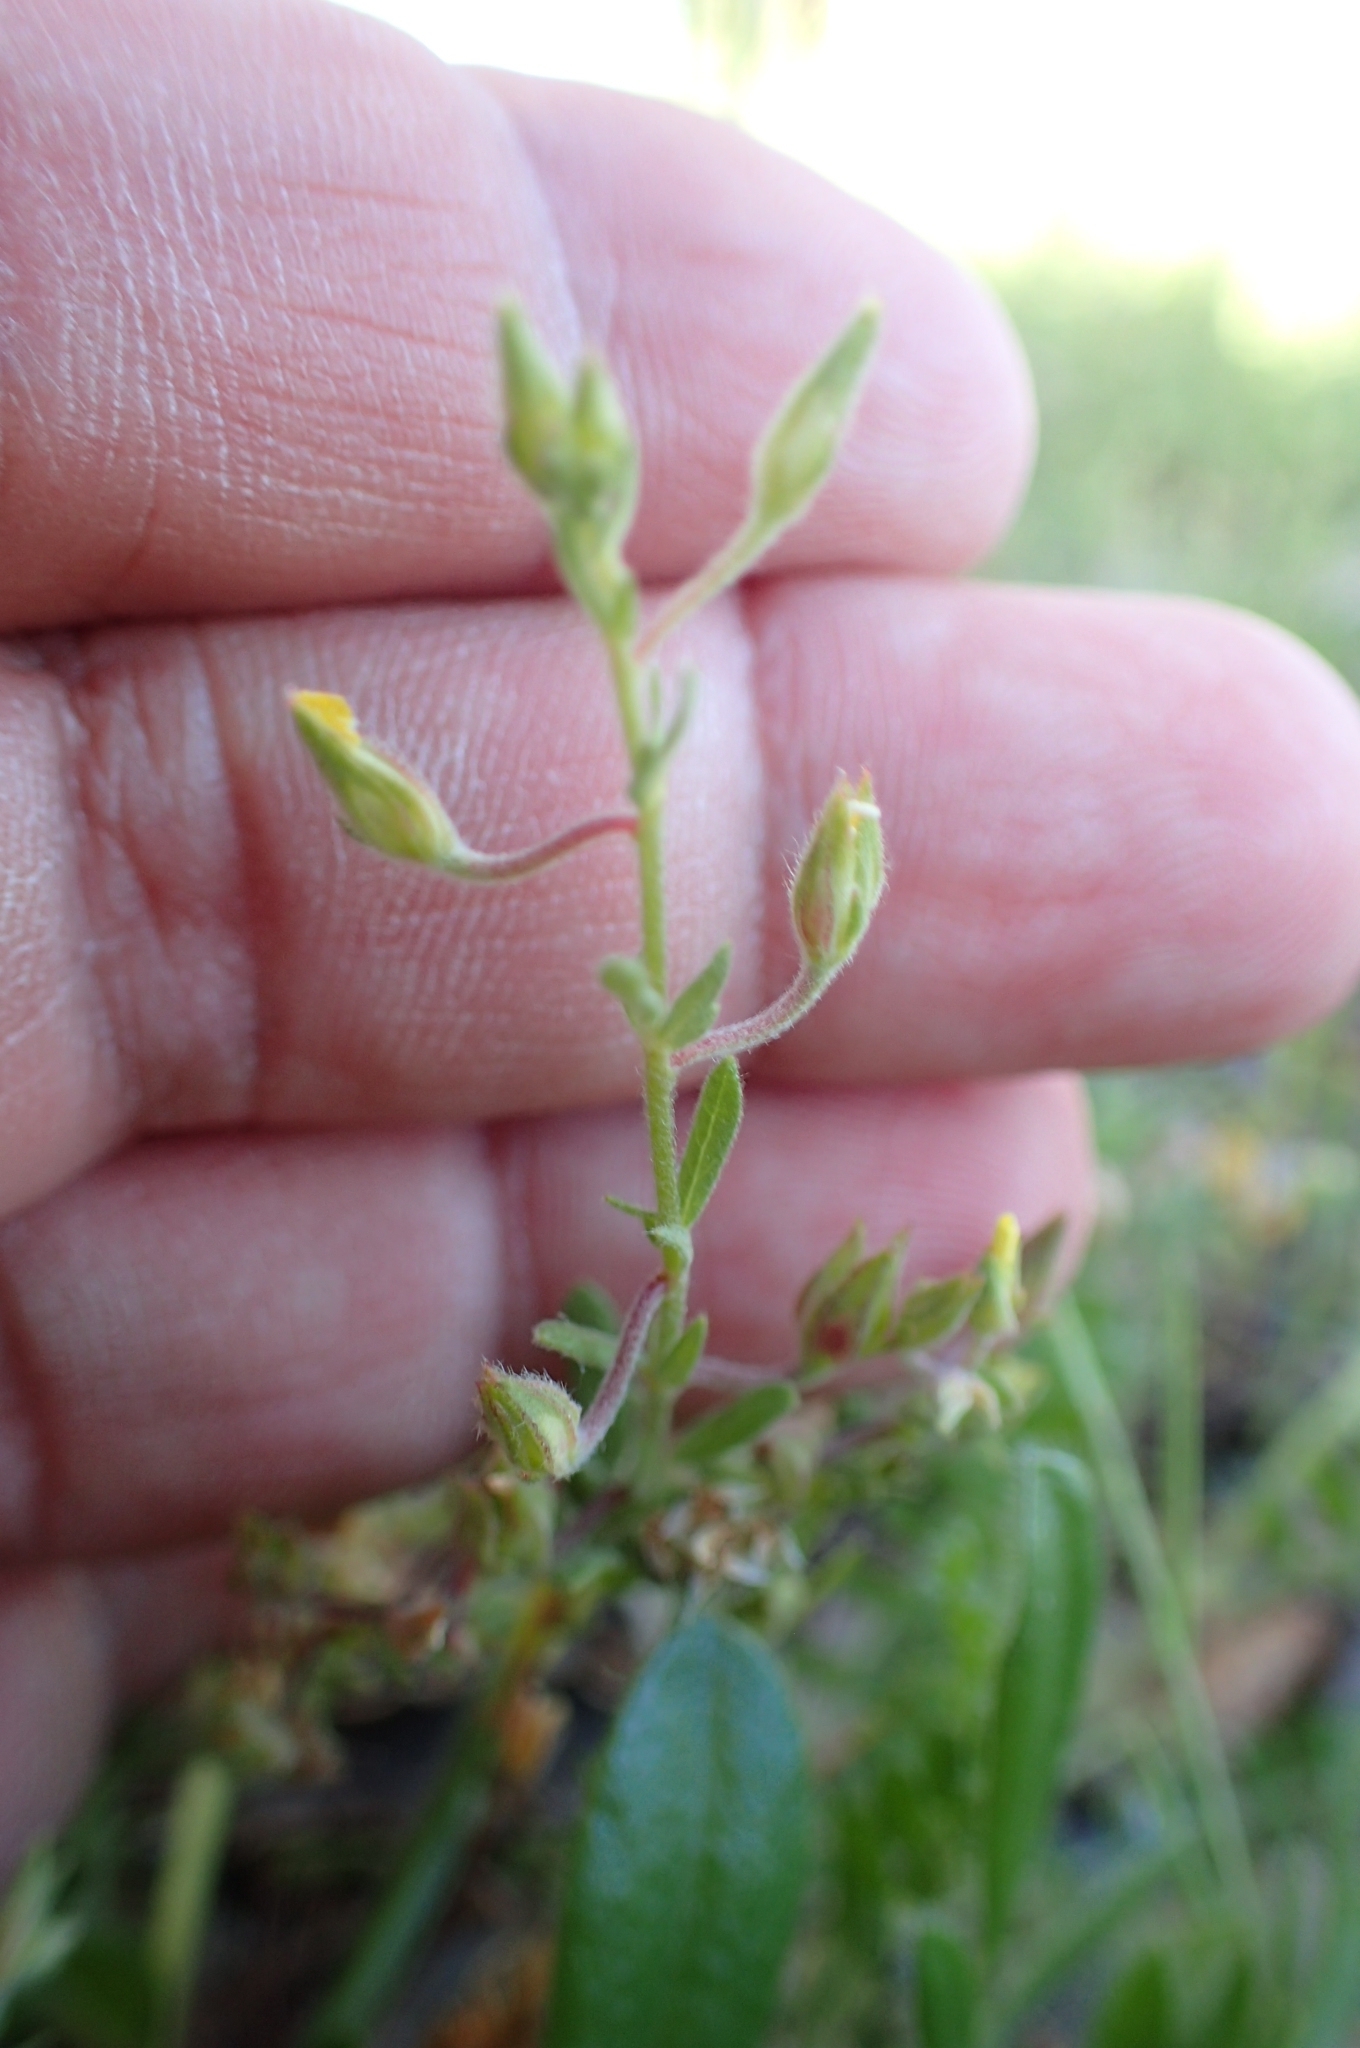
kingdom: Plantae
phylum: Tracheophyta
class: Magnoliopsida
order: Malvales
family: Cistaceae
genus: Helianthemum
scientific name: Helianthemum salicifolium
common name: Willowleaf frostweed
